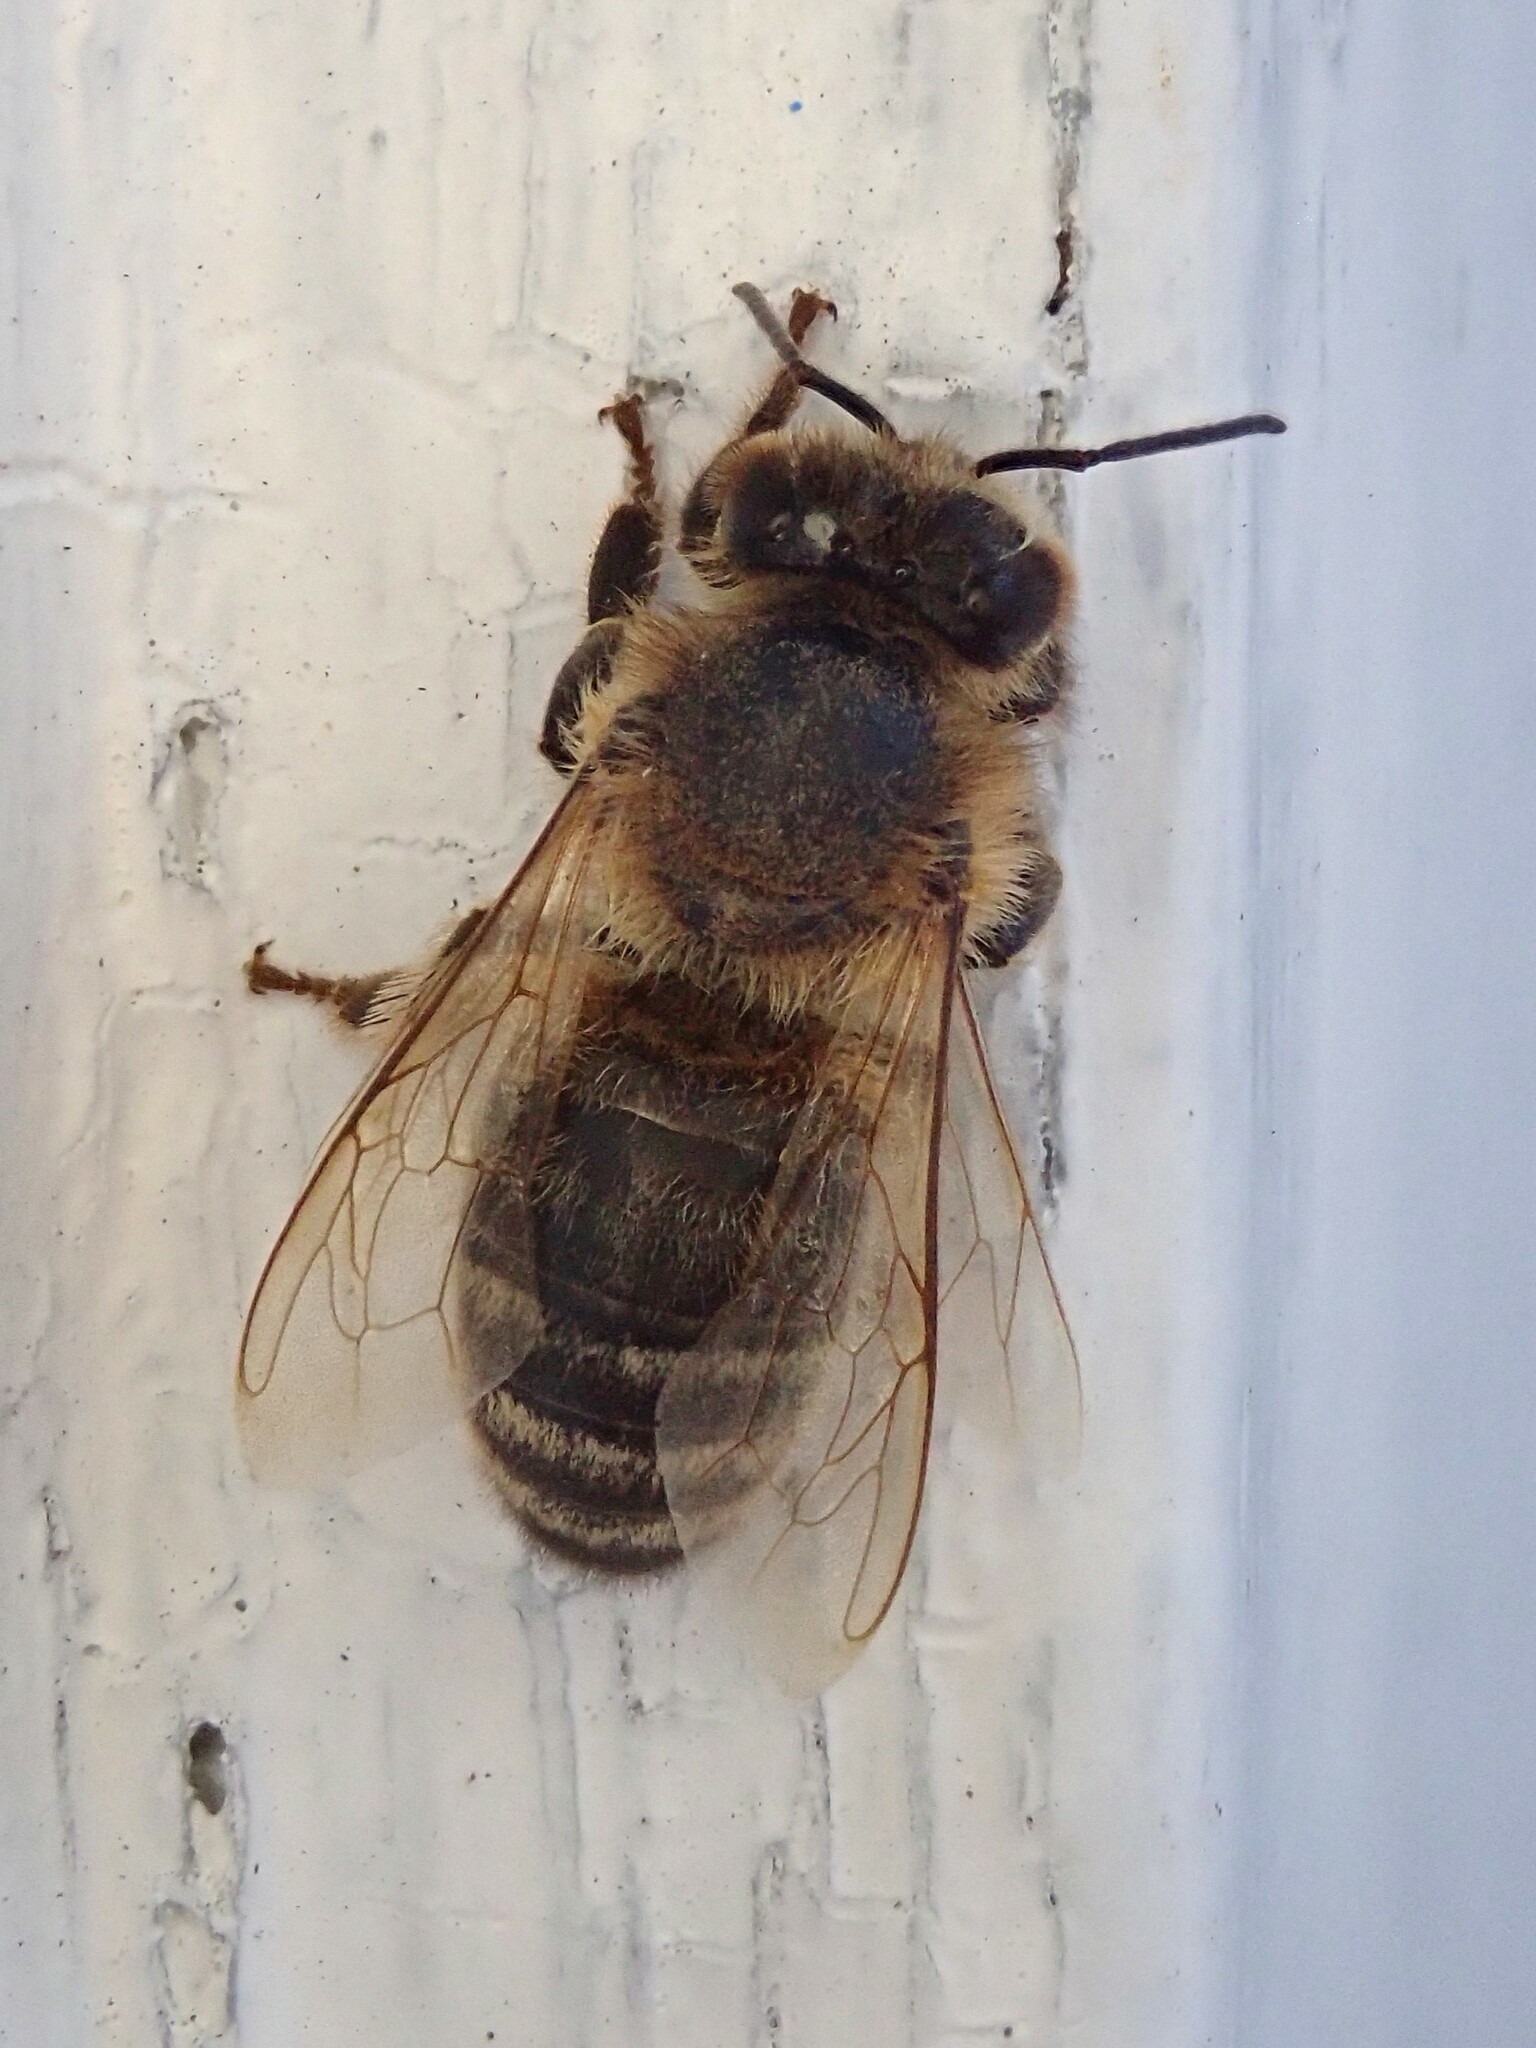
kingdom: Animalia
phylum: Arthropoda
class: Insecta
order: Hymenoptera
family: Apidae
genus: Apis
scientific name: Apis mellifera
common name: Honey bee
